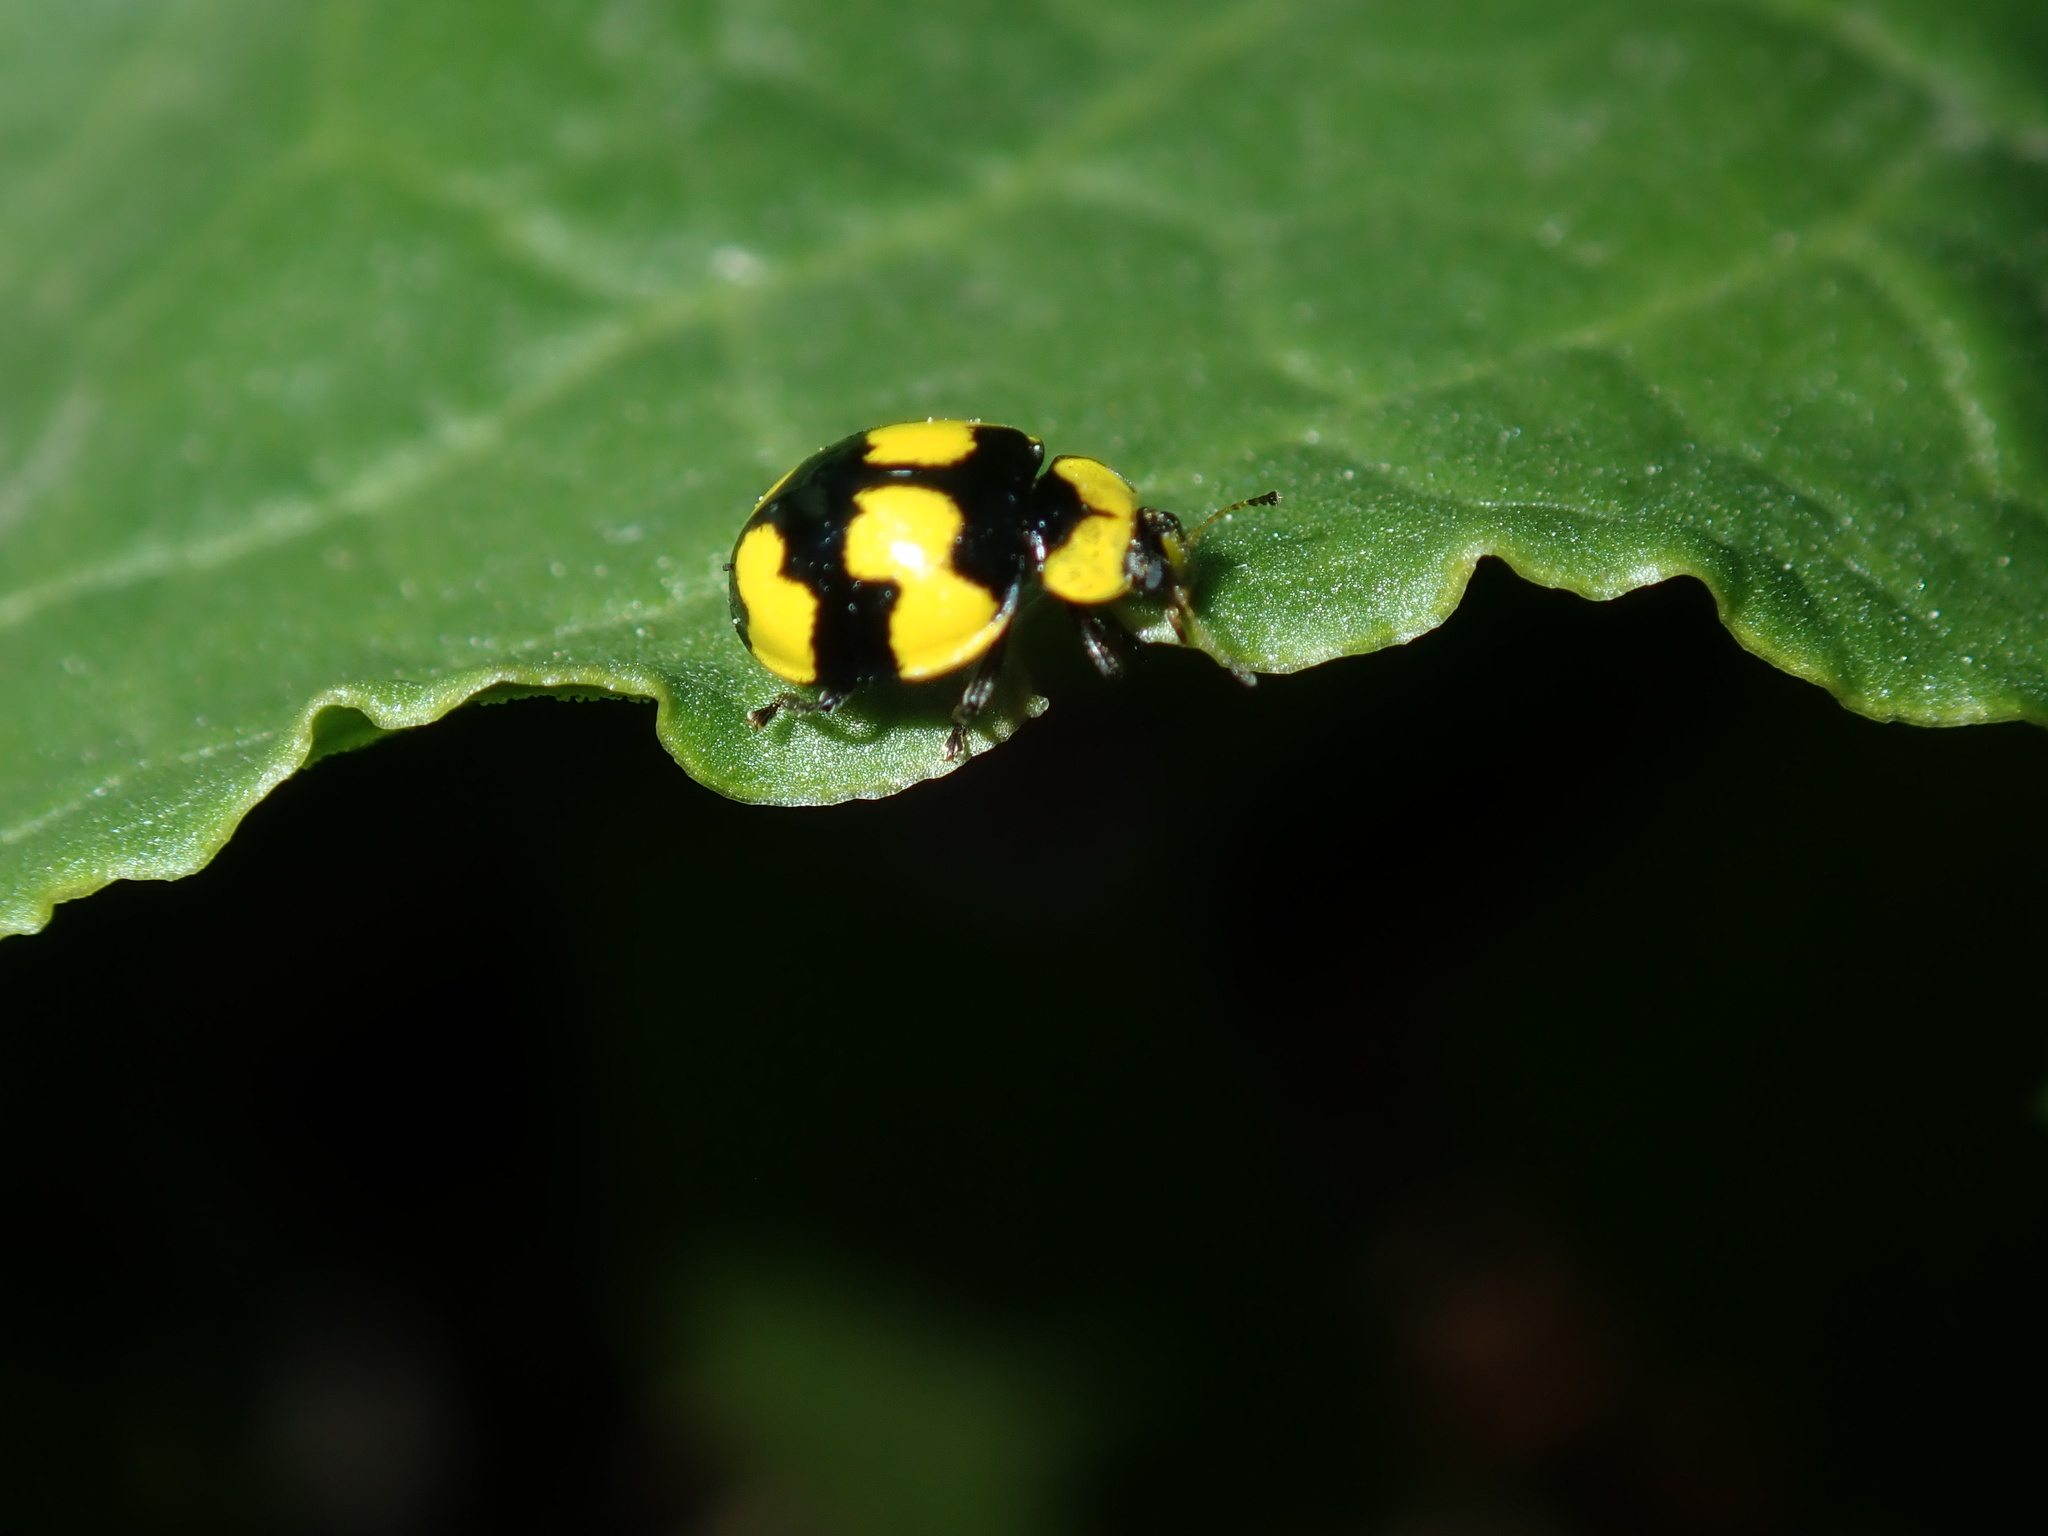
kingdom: Animalia
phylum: Arthropoda
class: Insecta
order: Coleoptera
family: Coccinellidae
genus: Illeis
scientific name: Illeis galbula
